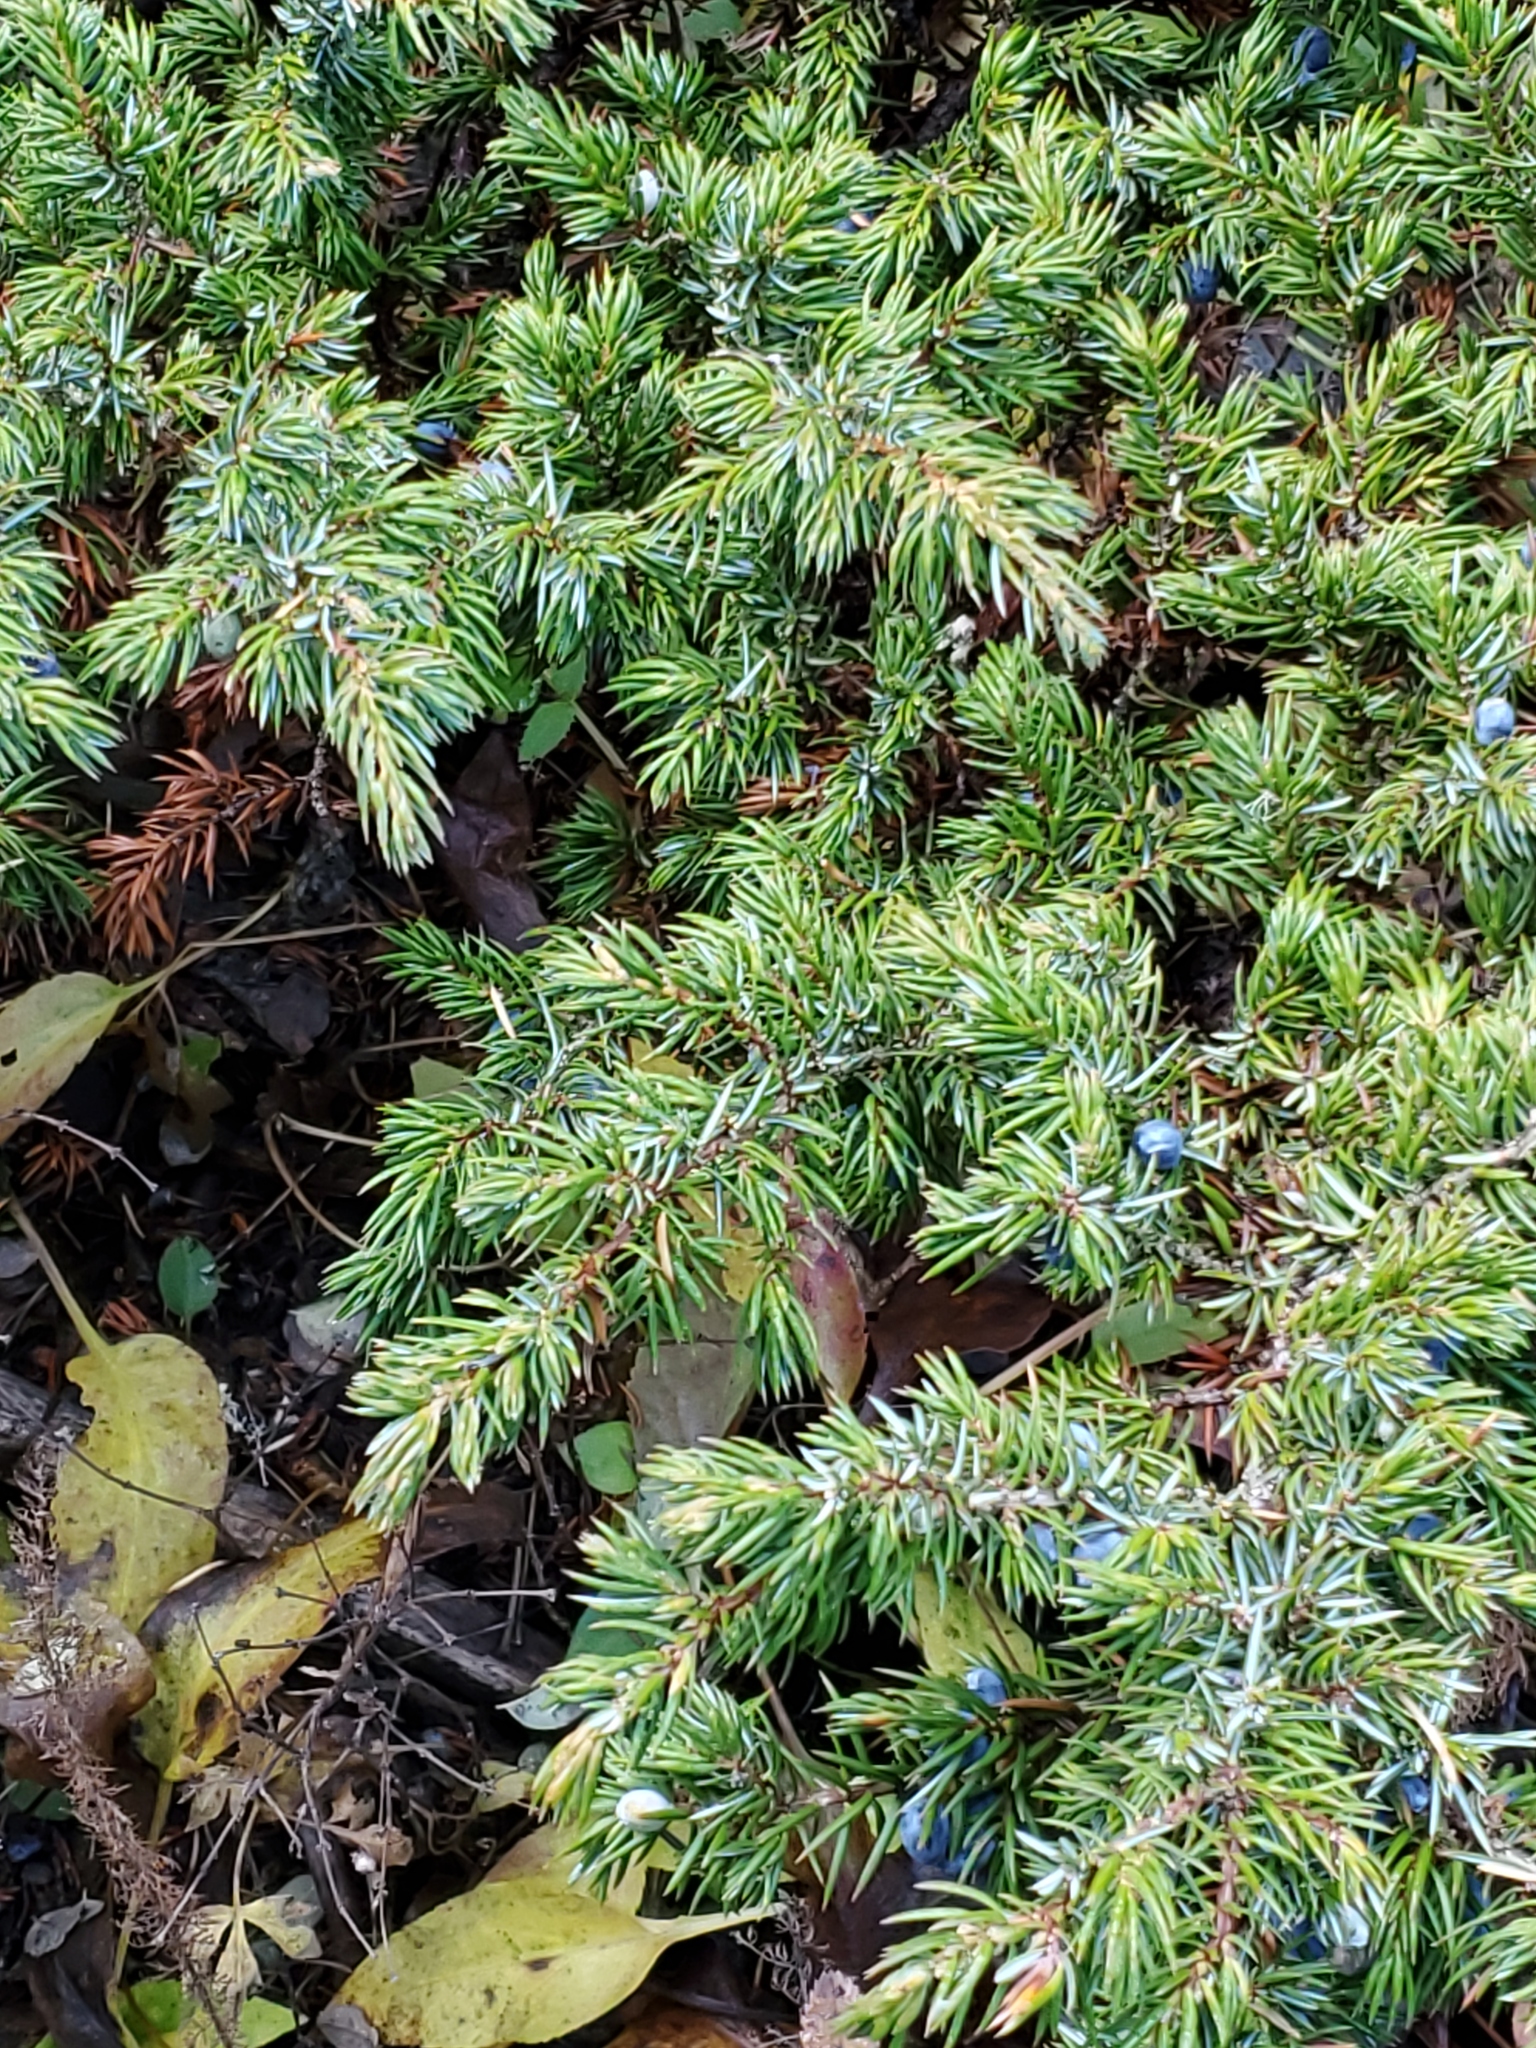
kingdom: Plantae
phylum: Tracheophyta
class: Pinopsida
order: Pinales
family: Cupressaceae
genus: Juniperus
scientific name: Juniperus communis
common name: Common juniper
